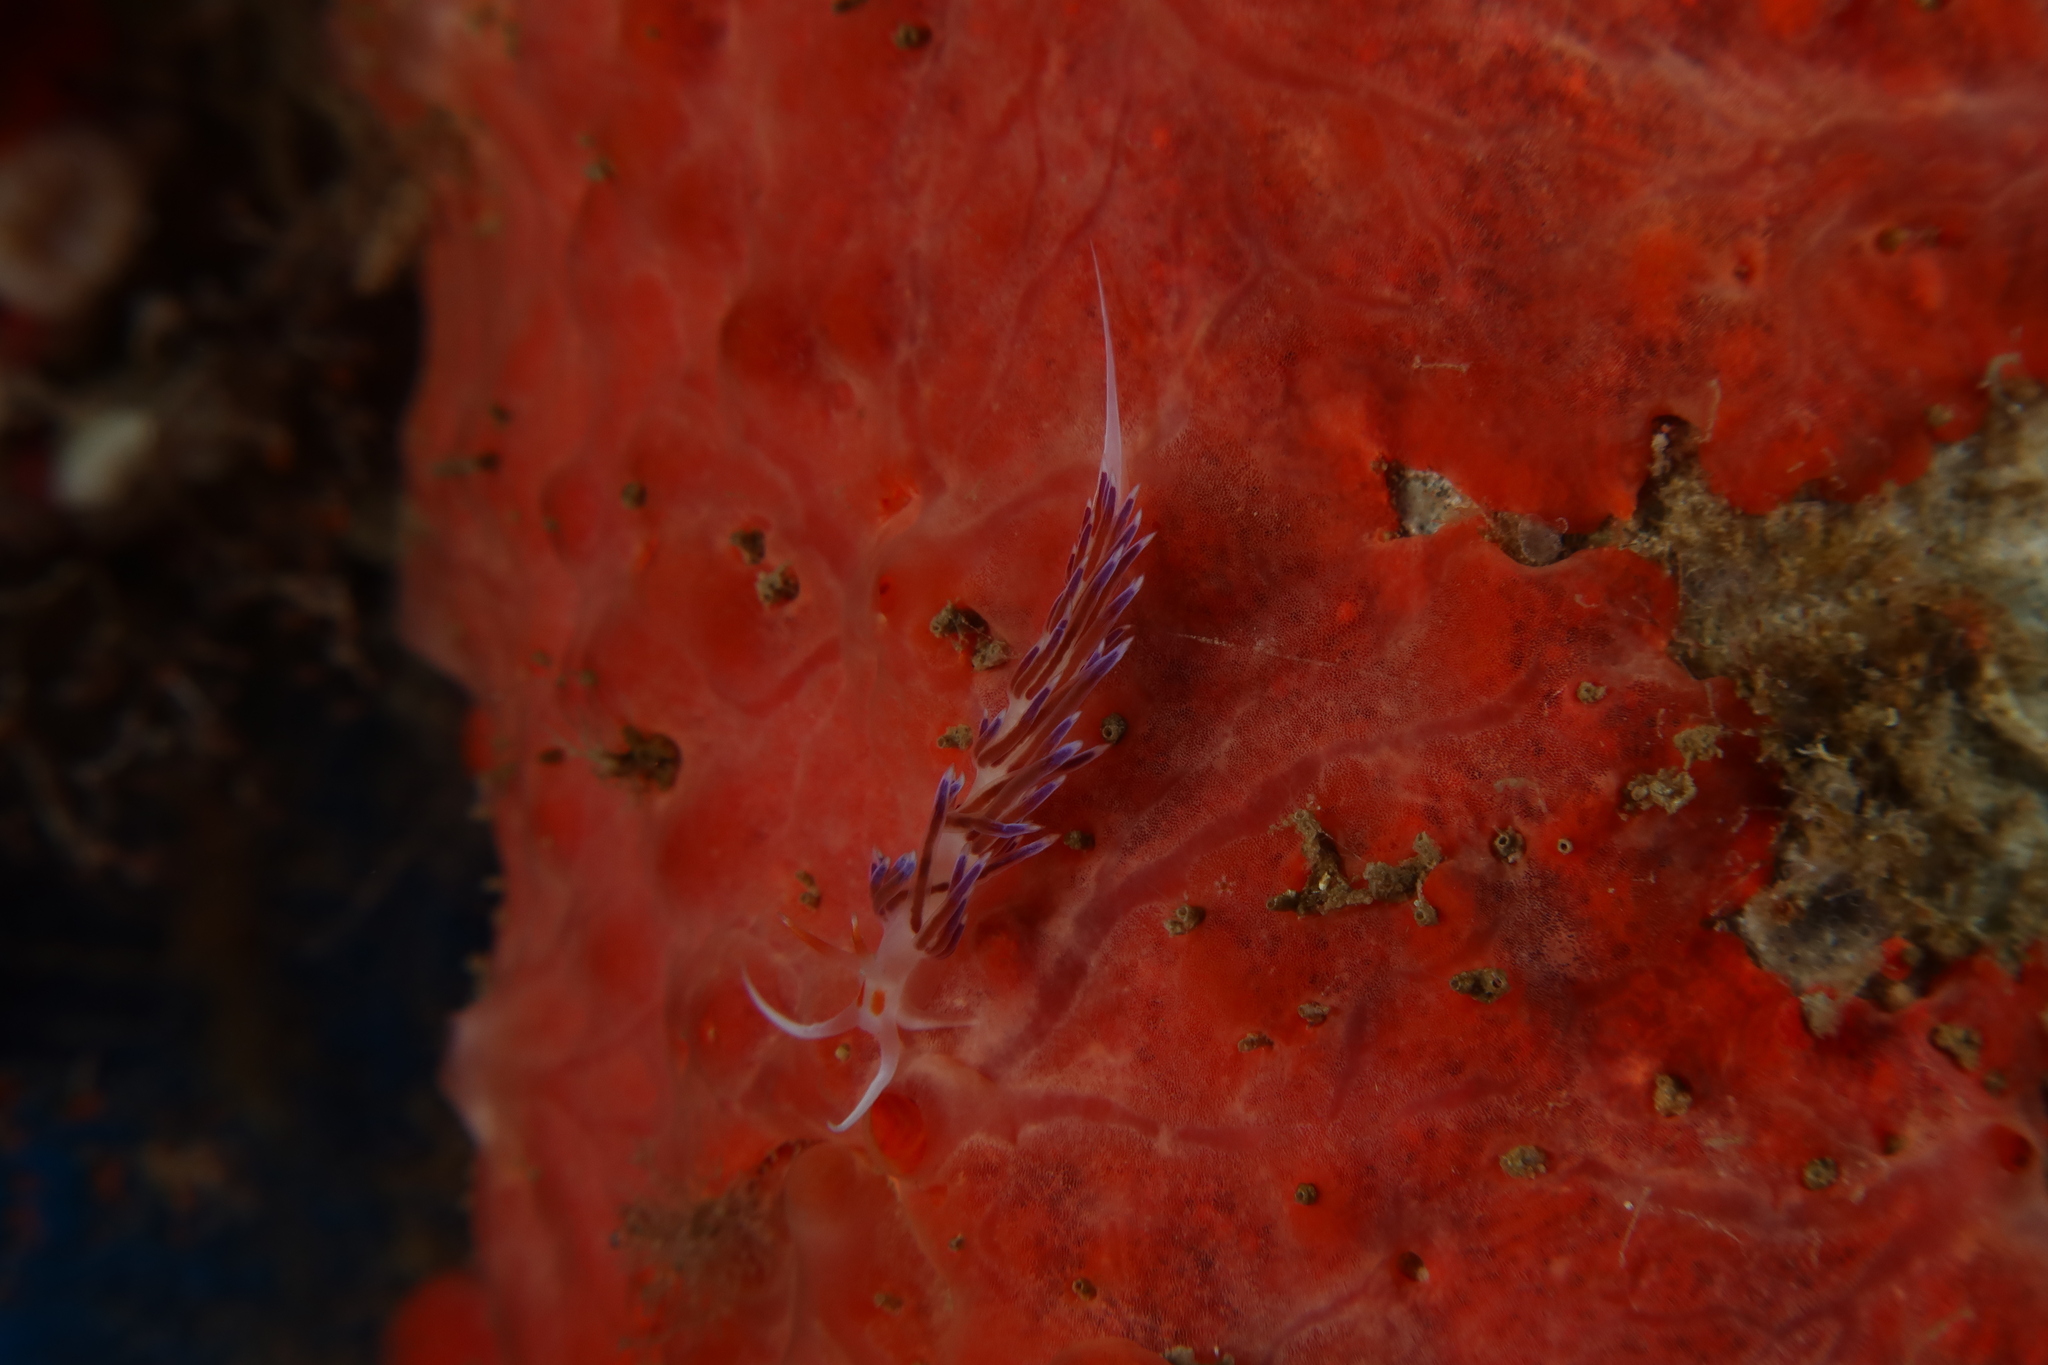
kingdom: Animalia
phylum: Mollusca
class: Gastropoda
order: Nudibranchia
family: Facelinidae
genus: Cratena
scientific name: Cratena peregrina
